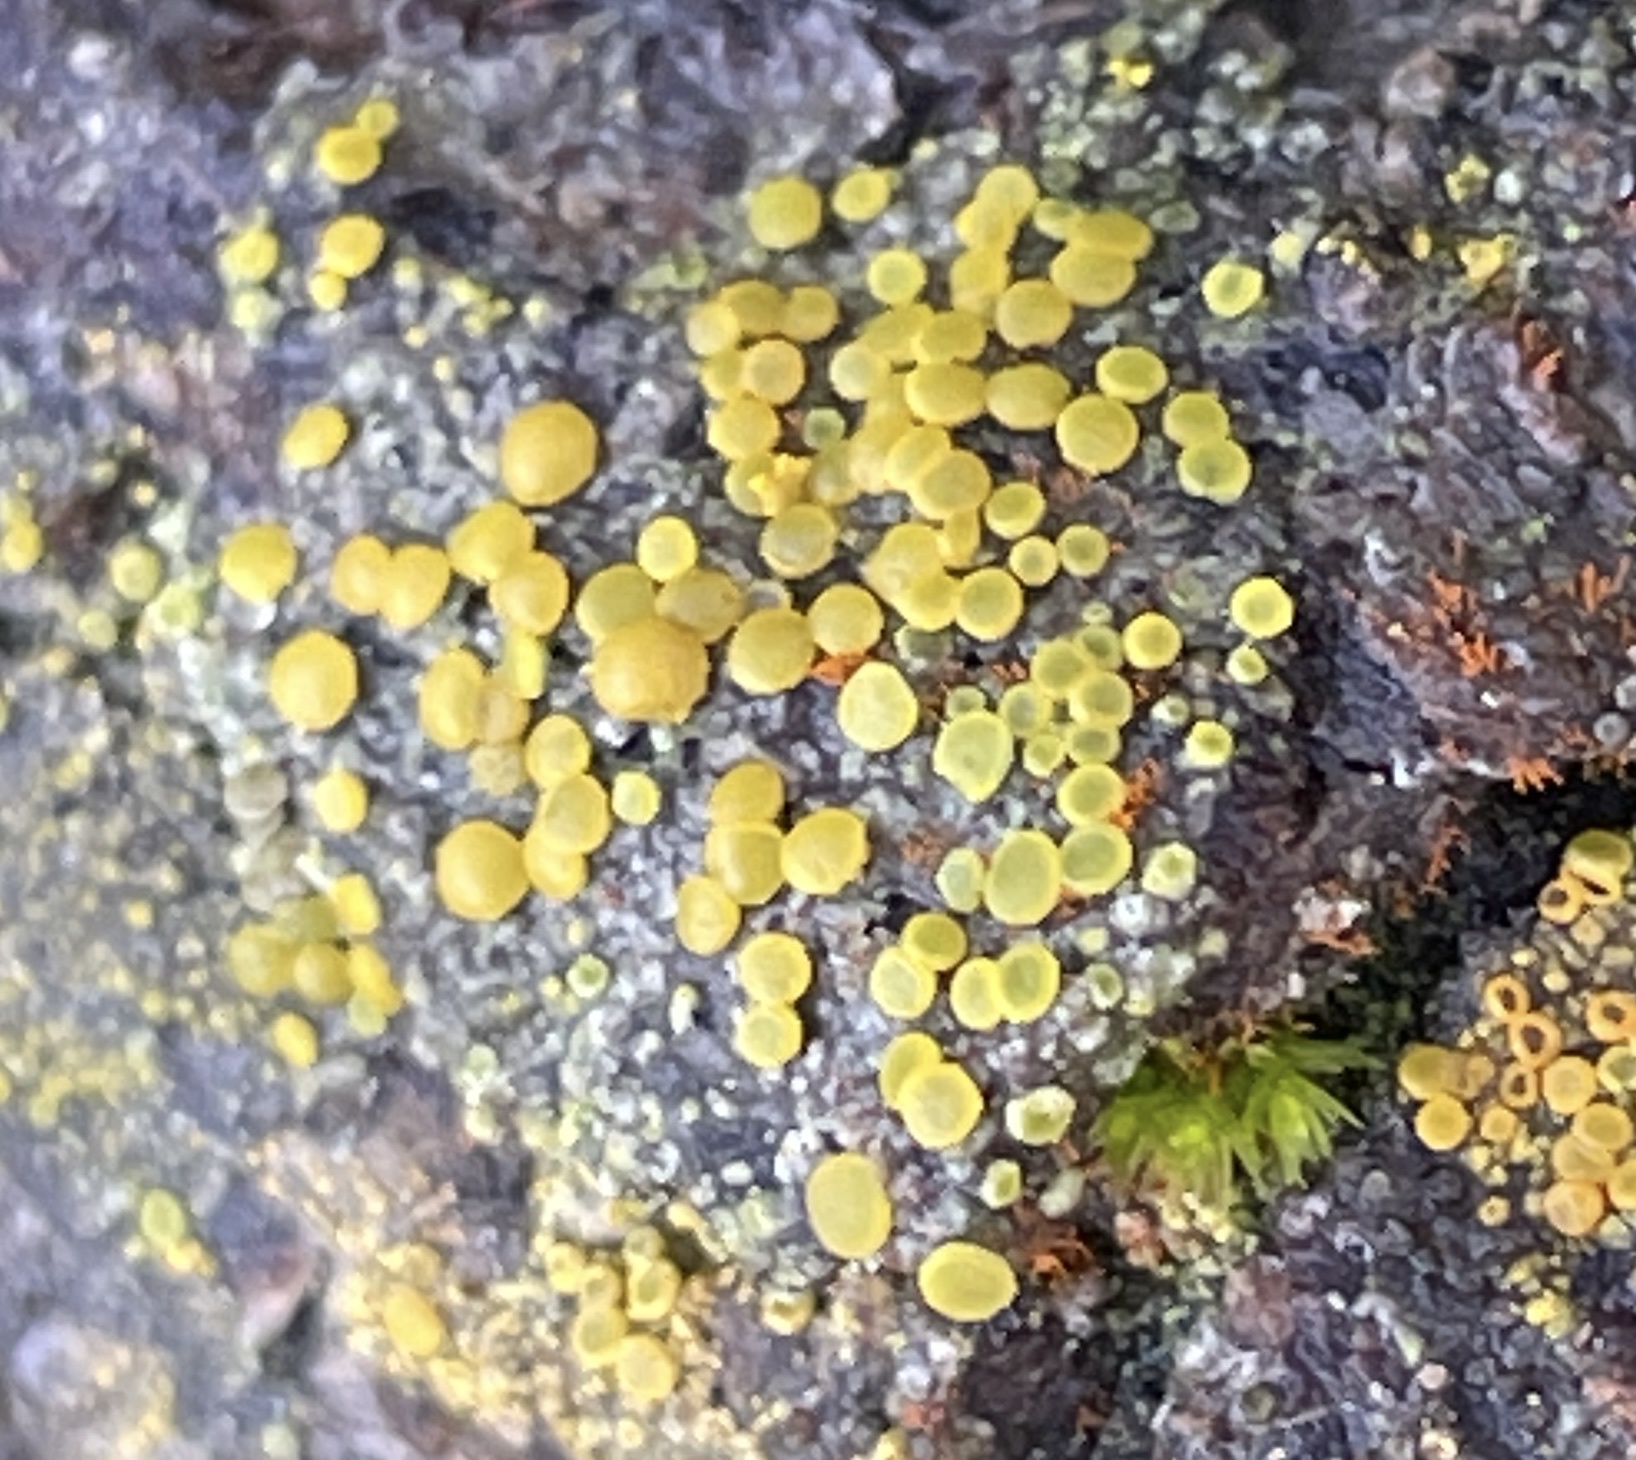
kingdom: Fungi
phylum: Ascomycota
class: Leotiomycetes
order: Helotiales
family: Pezizellaceae
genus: Calycina
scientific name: Calycina claroflava
